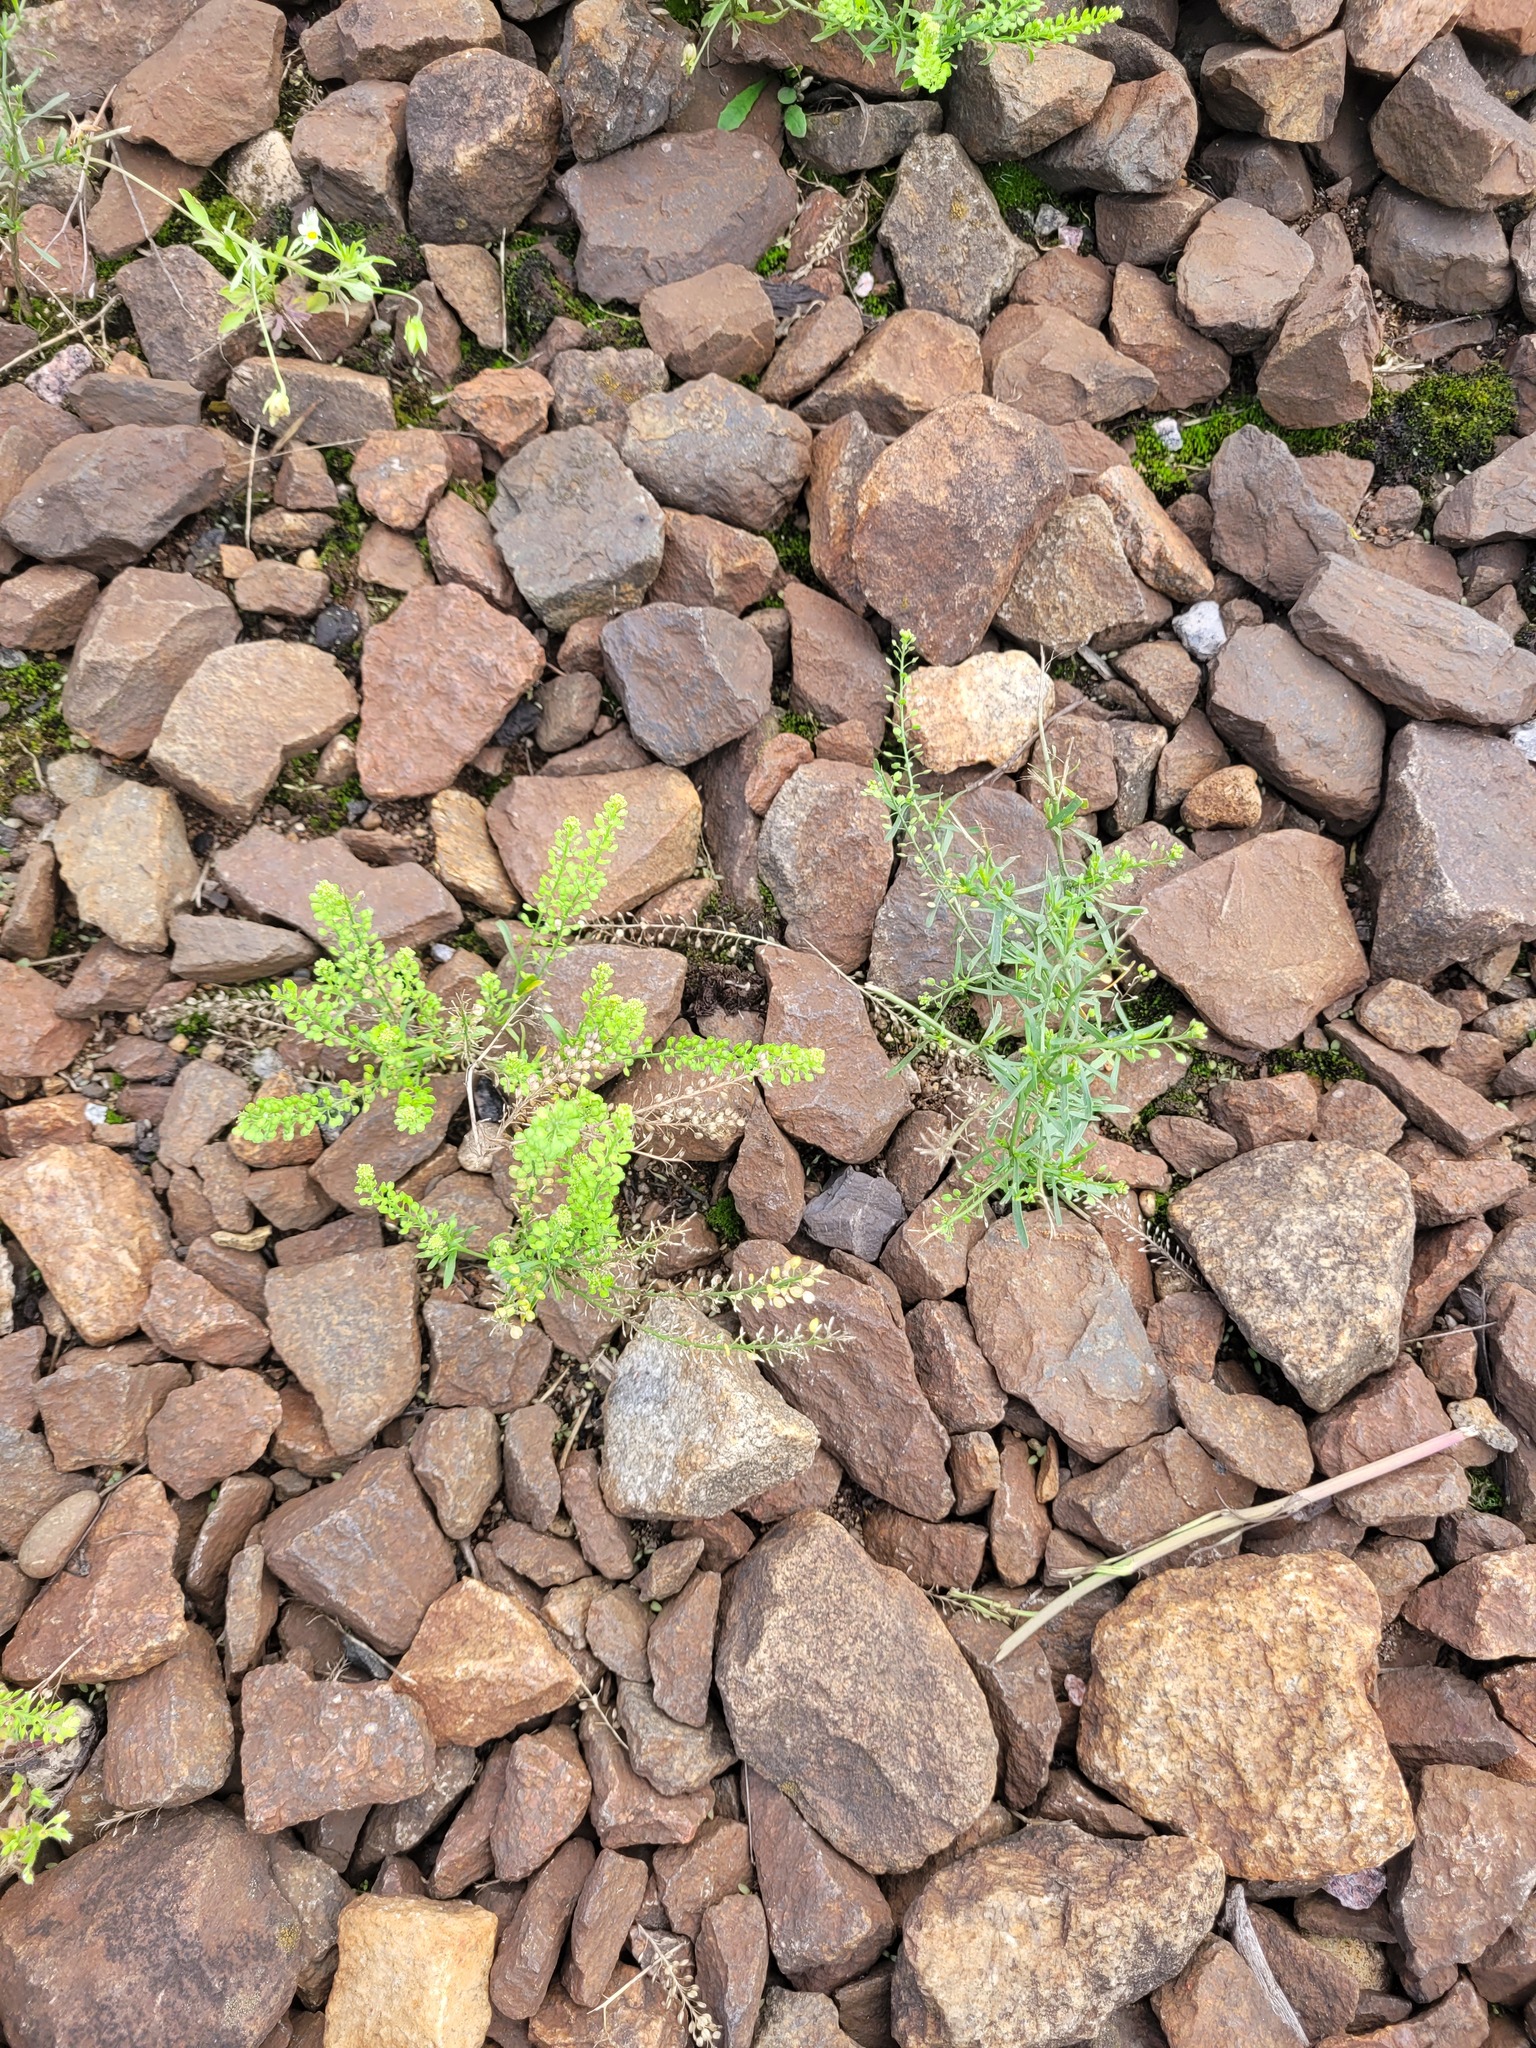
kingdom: Plantae
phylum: Tracheophyta
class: Magnoliopsida
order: Brassicales
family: Brassicaceae
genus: Lepidium
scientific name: Lepidium densiflorum
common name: Miner's pepperwort
